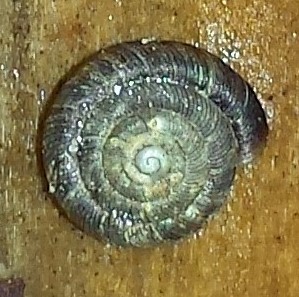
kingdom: Animalia
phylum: Mollusca
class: Gastropoda
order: Stylommatophora
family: Discidae
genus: Discus
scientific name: Discus rotundatus
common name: Rounded snail
